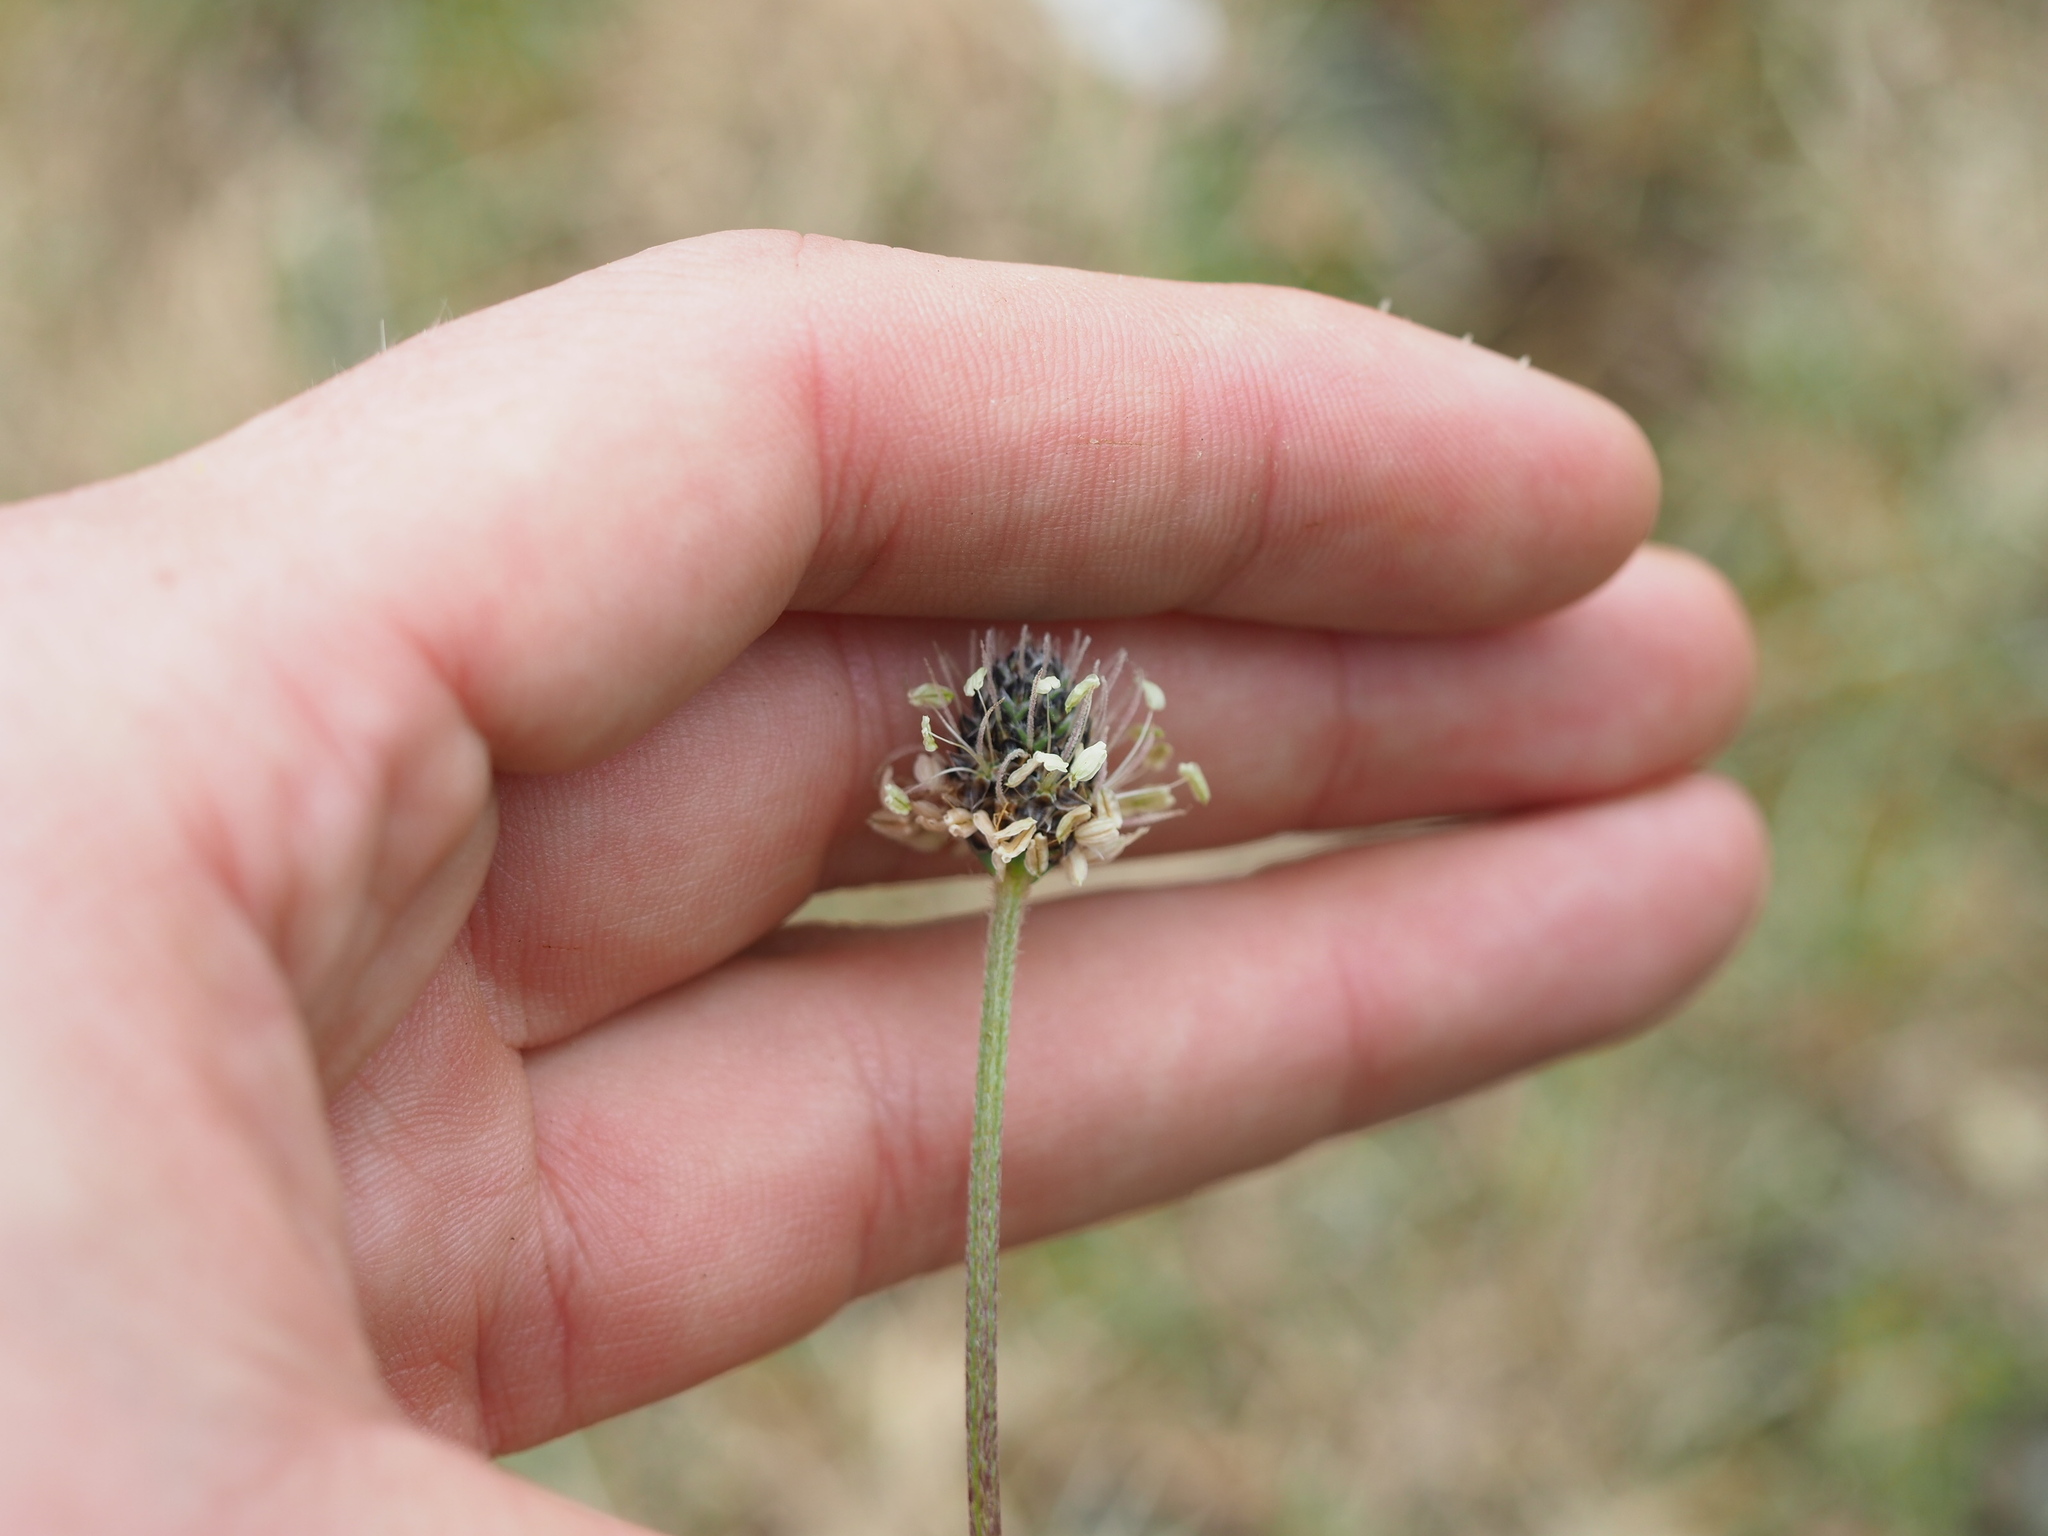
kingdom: Plantae
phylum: Tracheophyta
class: Magnoliopsida
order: Lamiales
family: Plantaginaceae
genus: Plantago
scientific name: Plantago lanceolata
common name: Ribwort plantain
